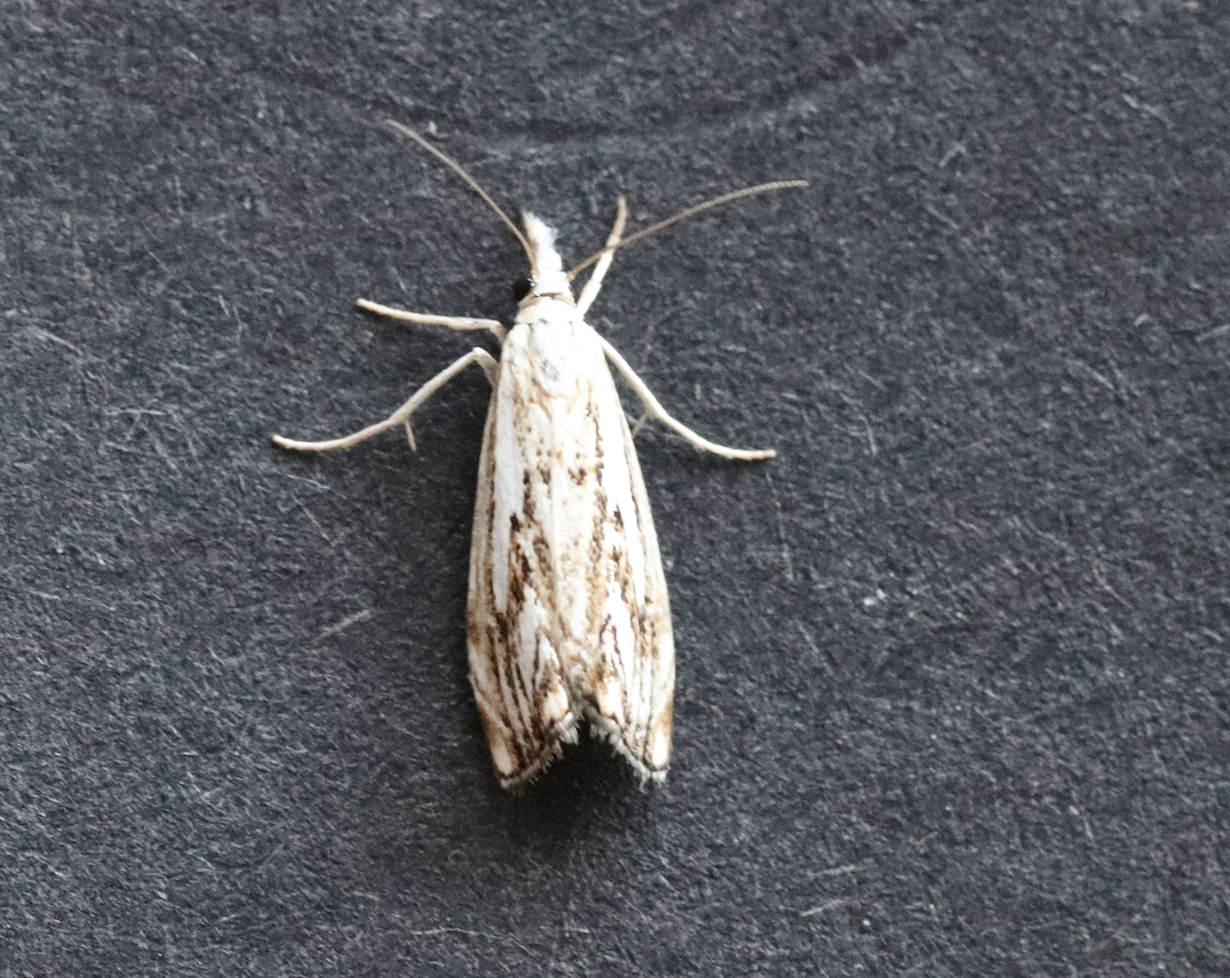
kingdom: Animalia
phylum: Arthropoda
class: Insecta
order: Lepidoptera
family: Crambidae
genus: Catoptria
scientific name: Catoptria falsella
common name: Chequered grass-veneer
